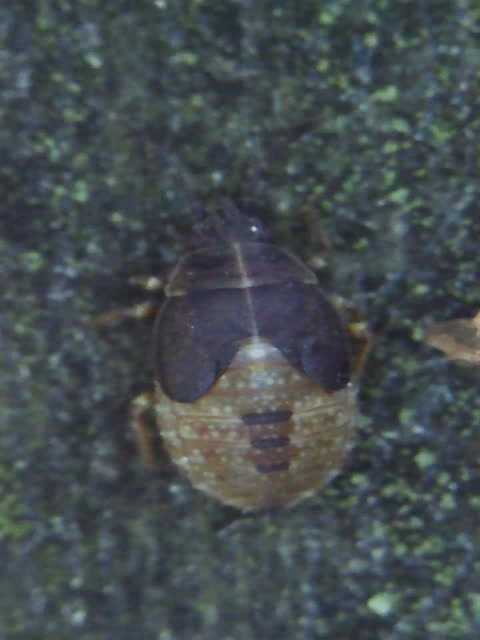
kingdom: Animalia
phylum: Arthropoda
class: Insecta
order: Hemiptera
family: Lygaeidae
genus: Kleidocerys
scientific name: Kleidocerys resedae
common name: Birch catkin bug
